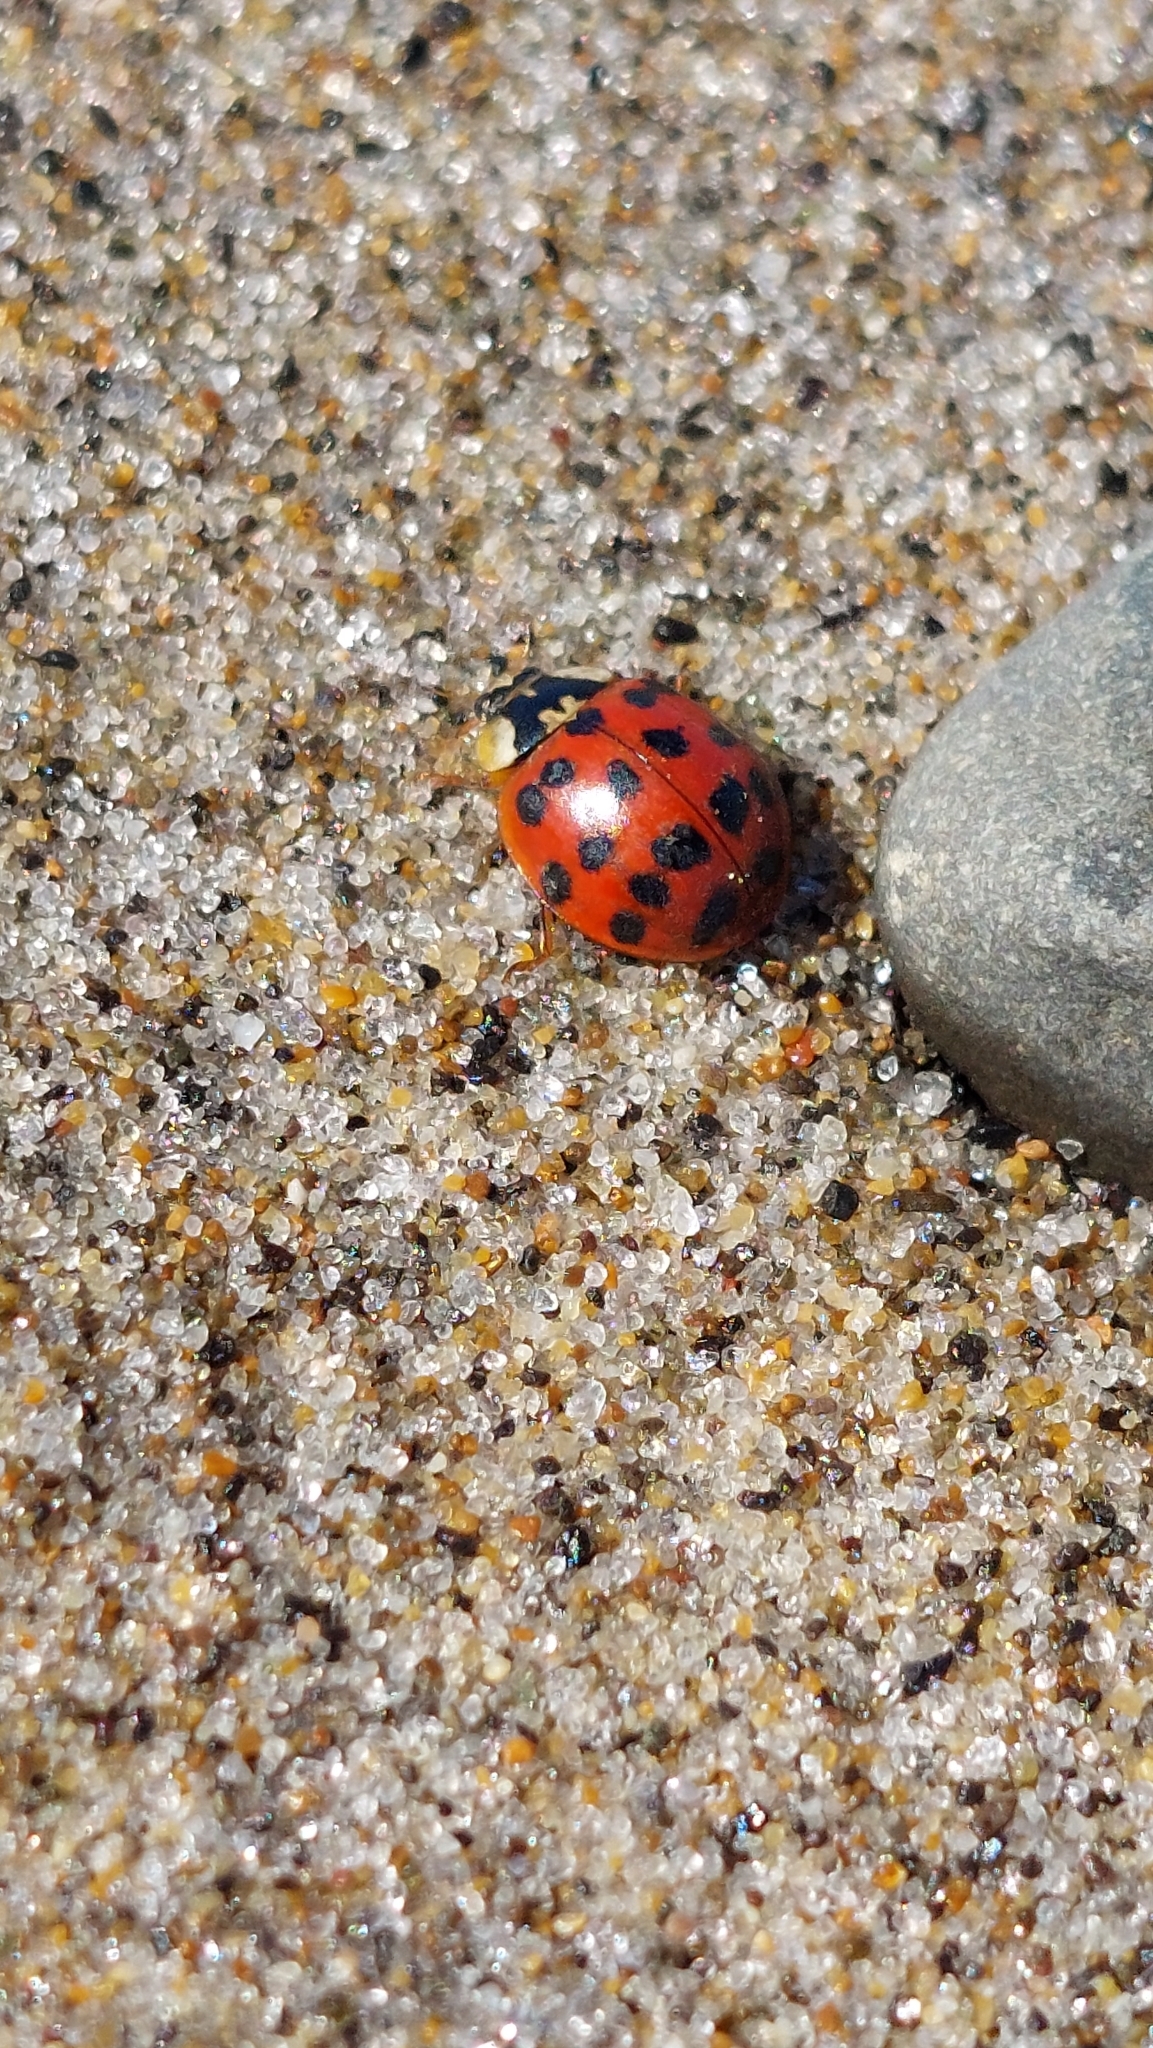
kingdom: Animalia
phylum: Arthropoda
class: Insecta
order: Coleoptera
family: Coccinellidae
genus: Harmonia
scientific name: Harmonia axyridis
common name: Harlequin ladybird
